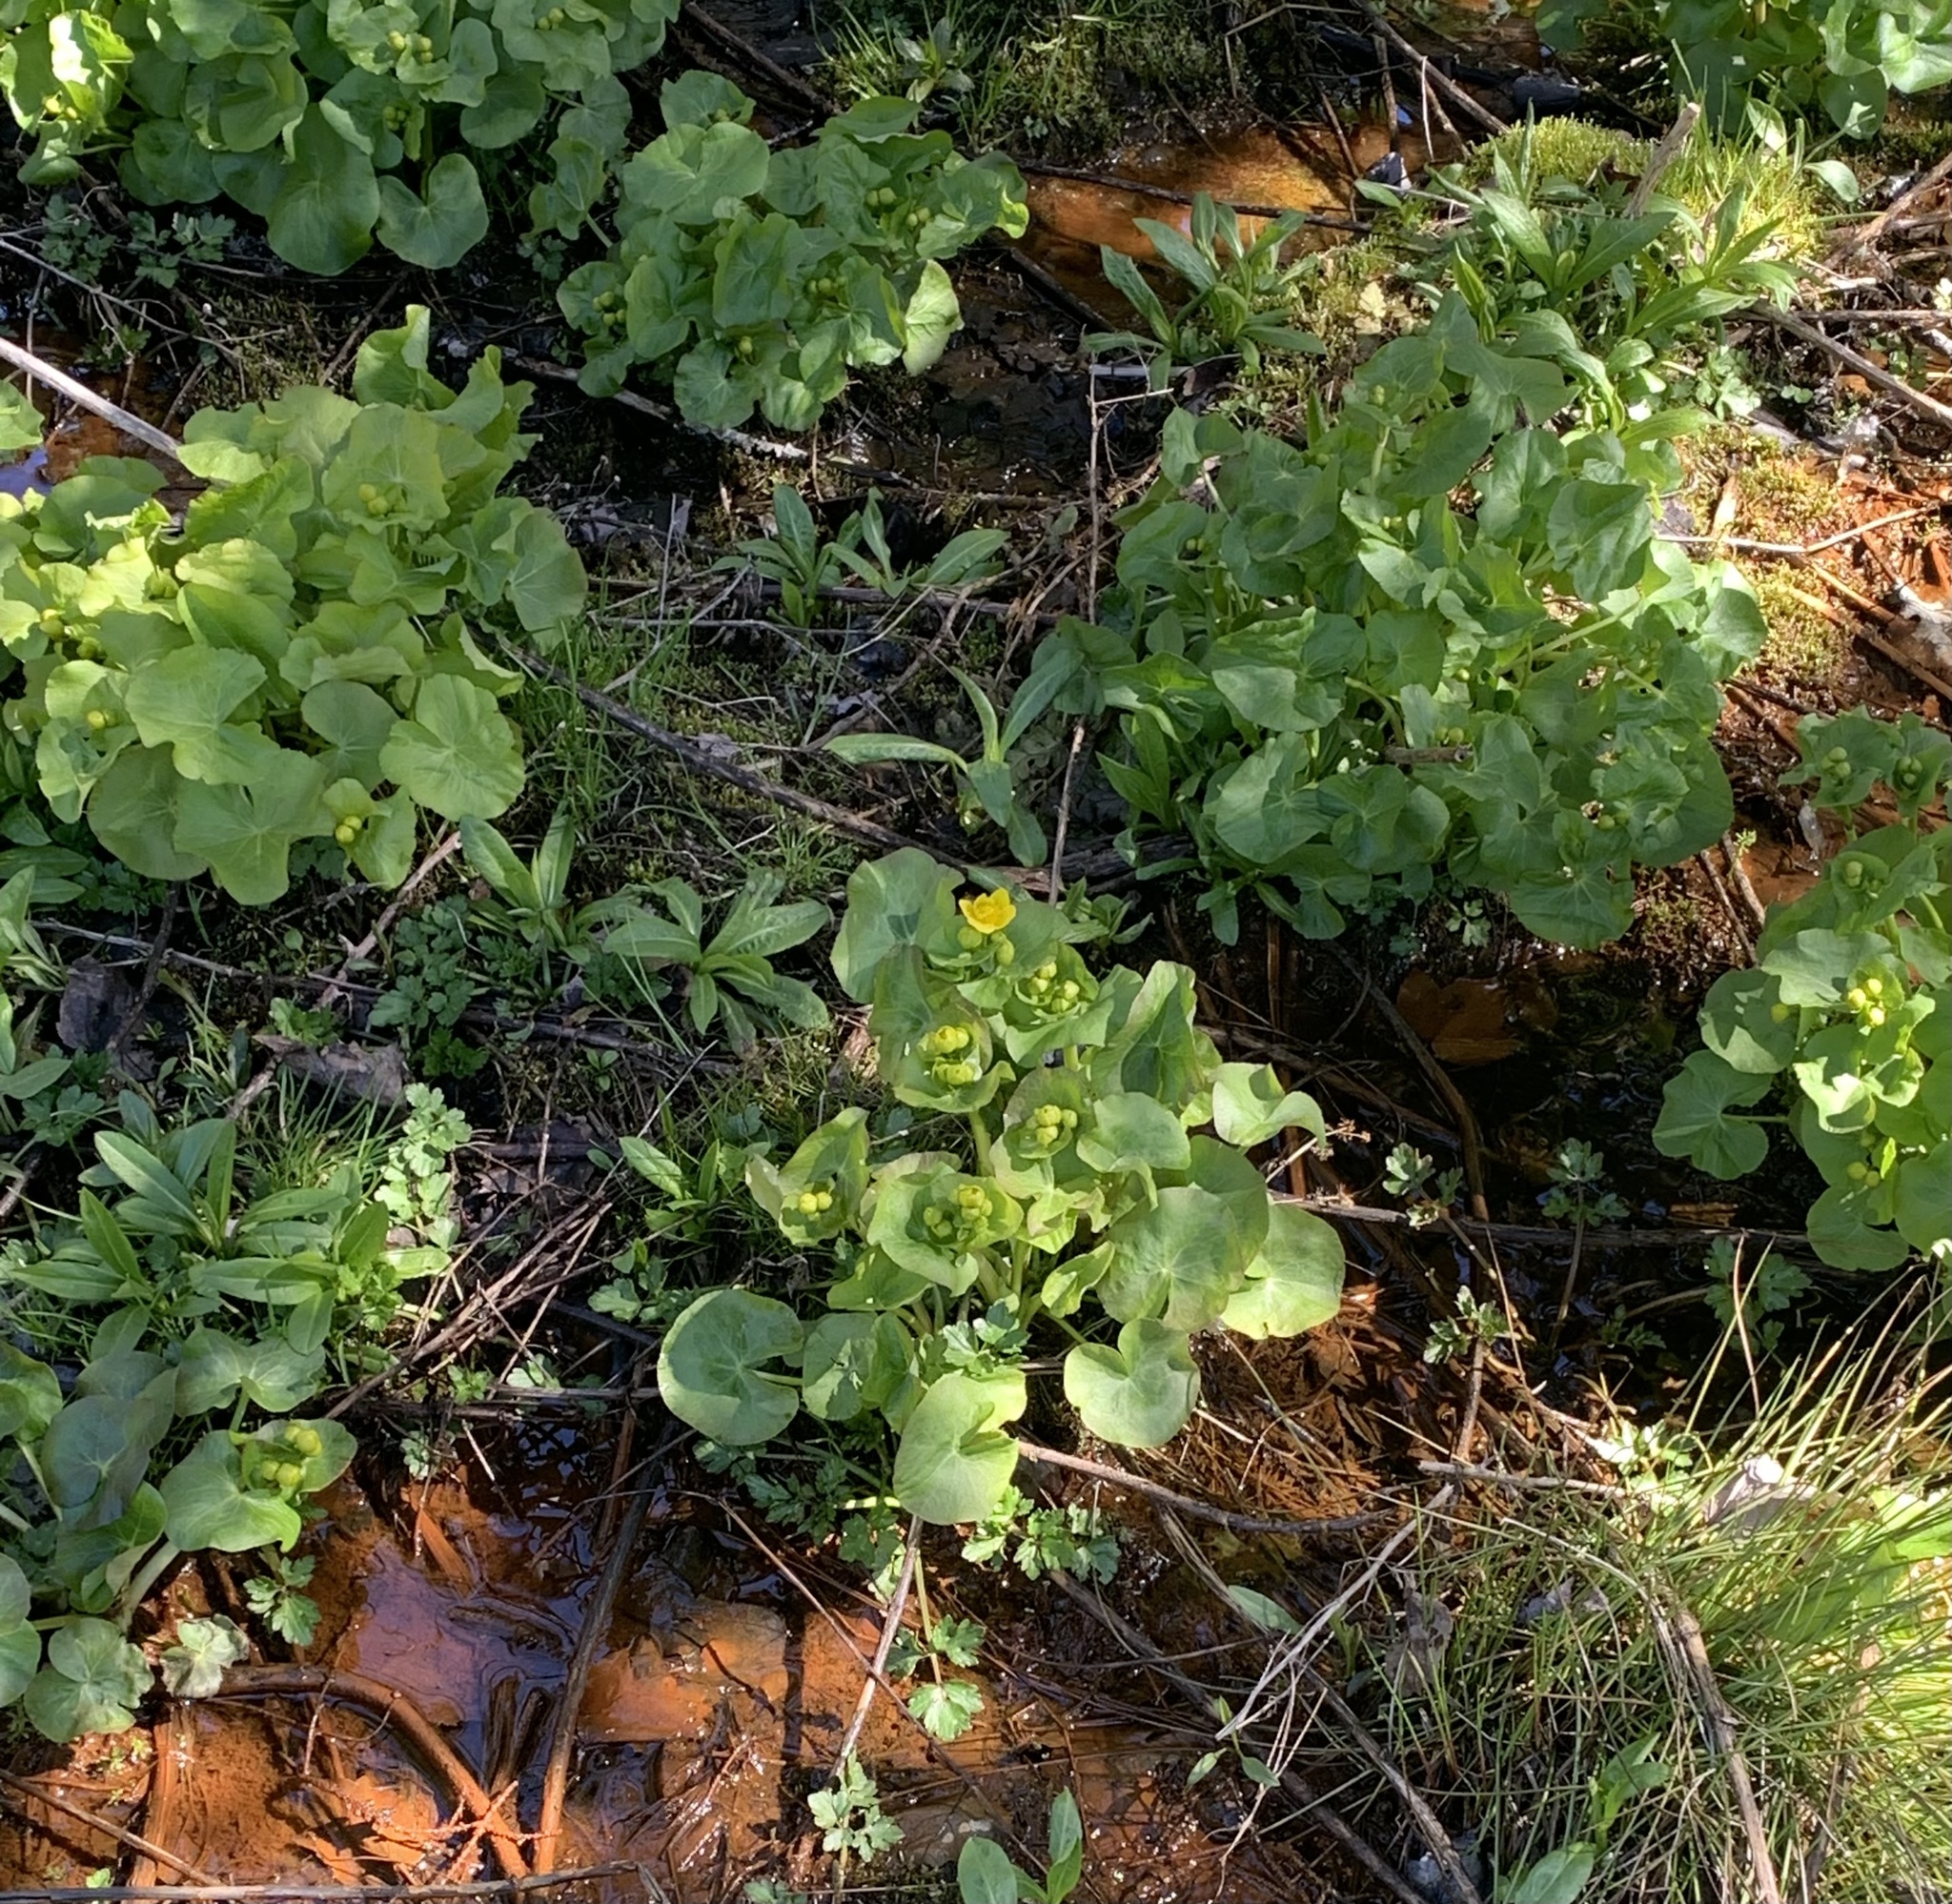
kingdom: Plantae
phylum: Tracheophyta
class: Magnoliopsida
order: Ranunculales
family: Ranunculaceae
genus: Caltha
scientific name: Caltha palustris
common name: Marsh marigold
